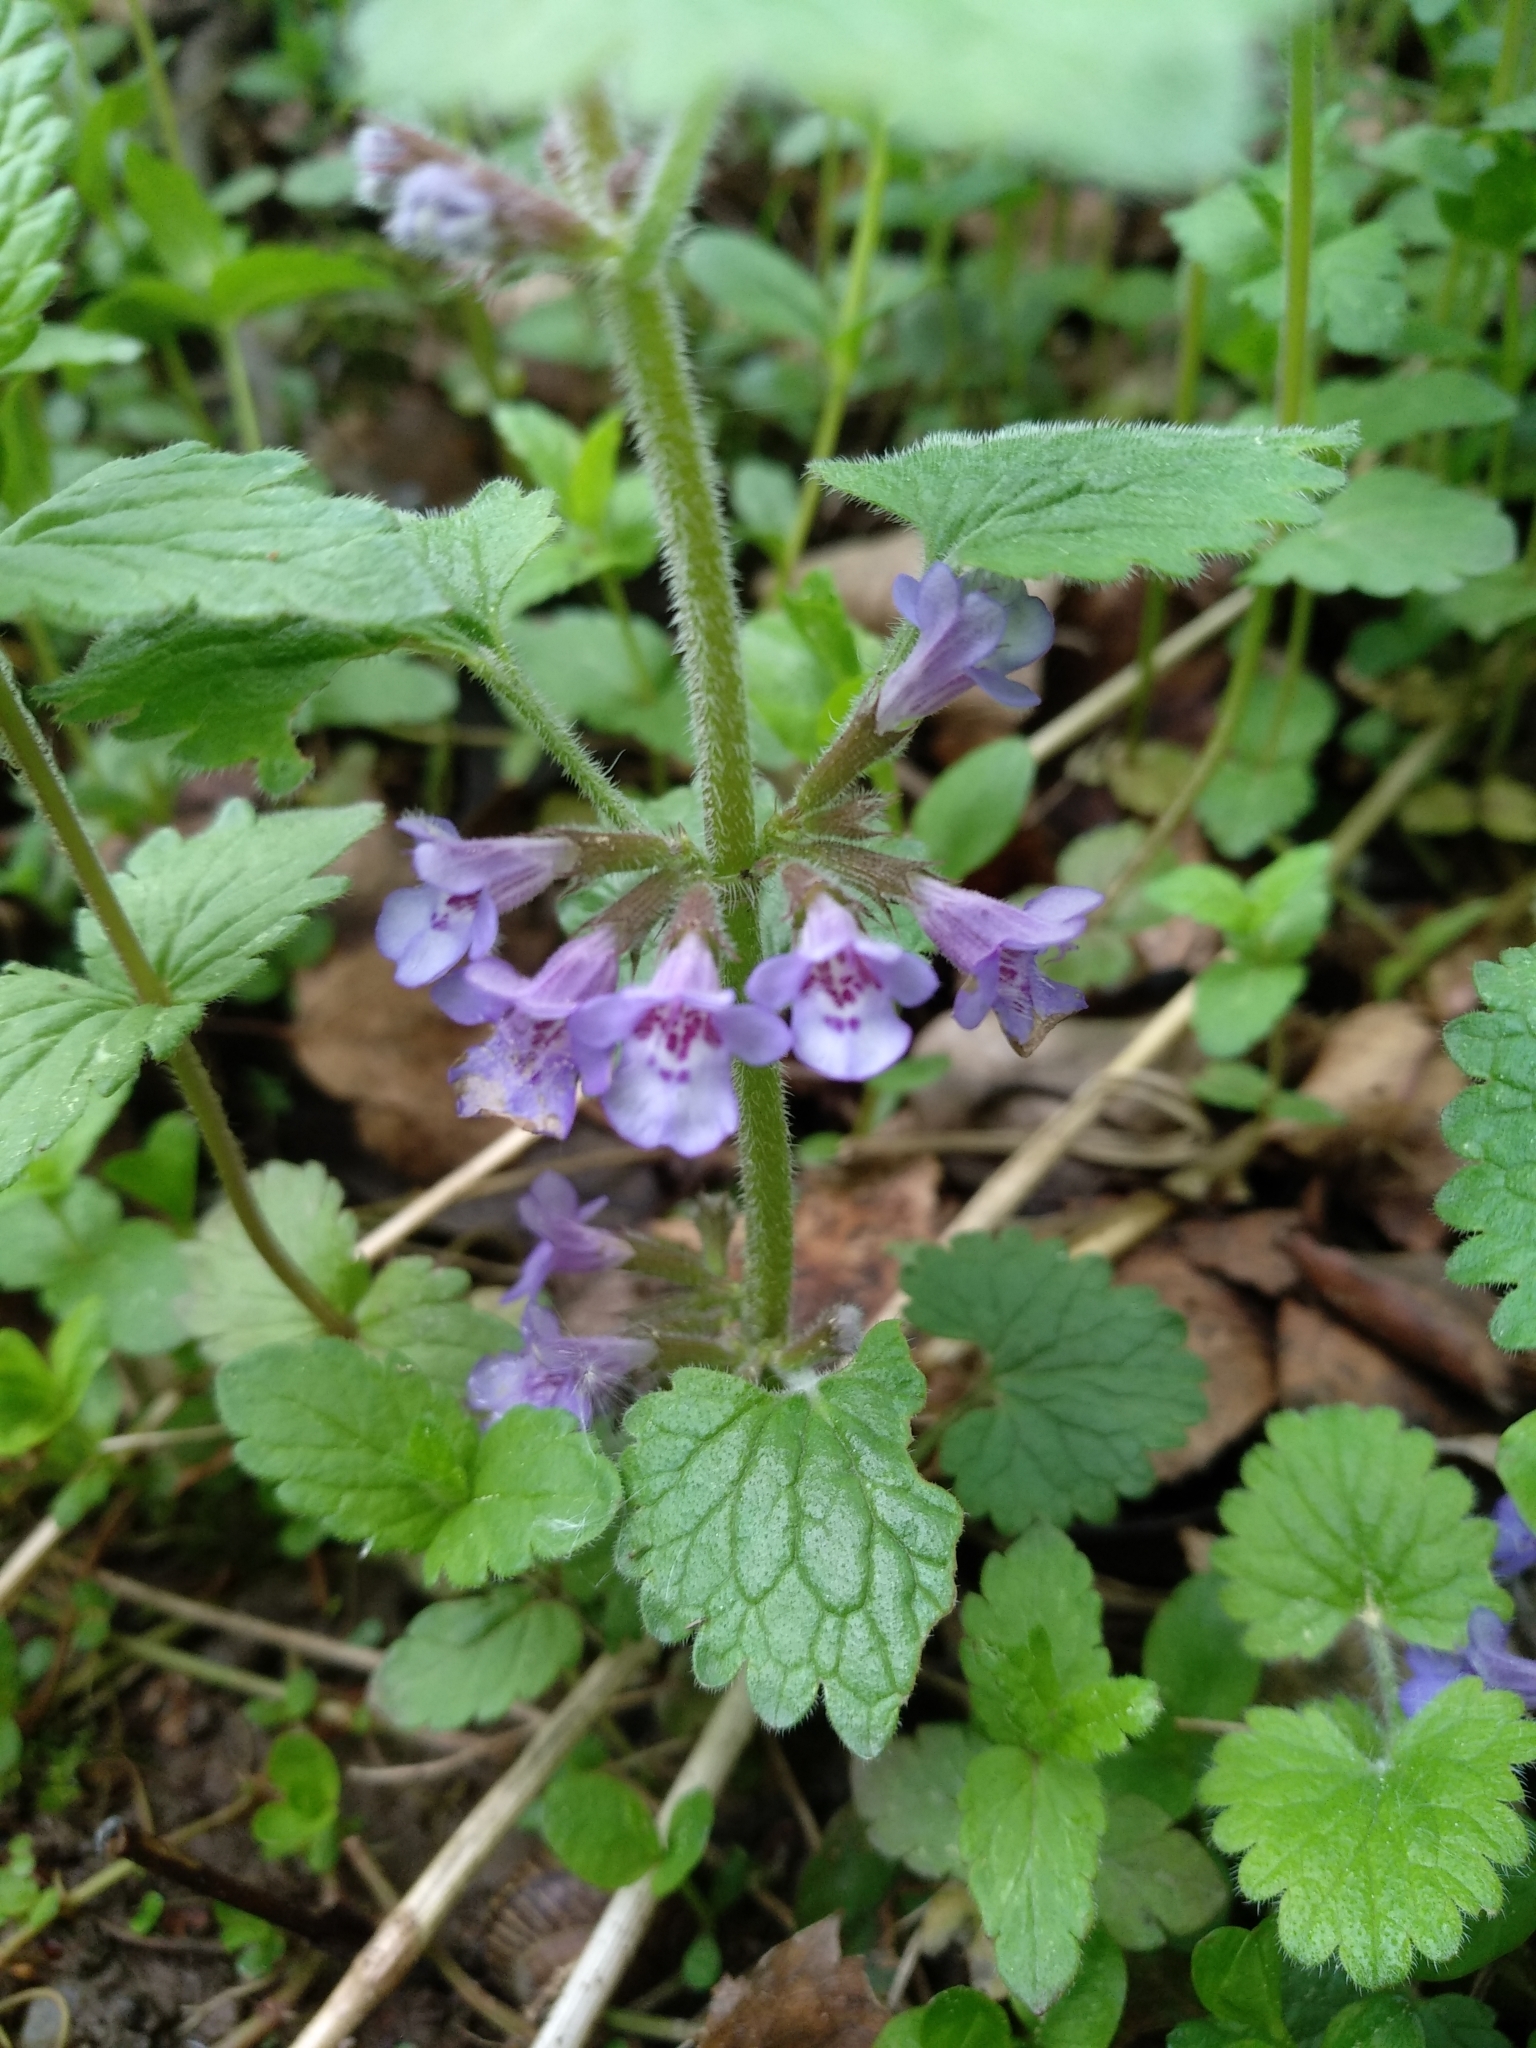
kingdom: Plantae
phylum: Tracheophyta
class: Magnoliopsida
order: Lamiales
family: Lamiaceae
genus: Glechoma
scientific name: Glechoma hederacea
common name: Ground ivy
